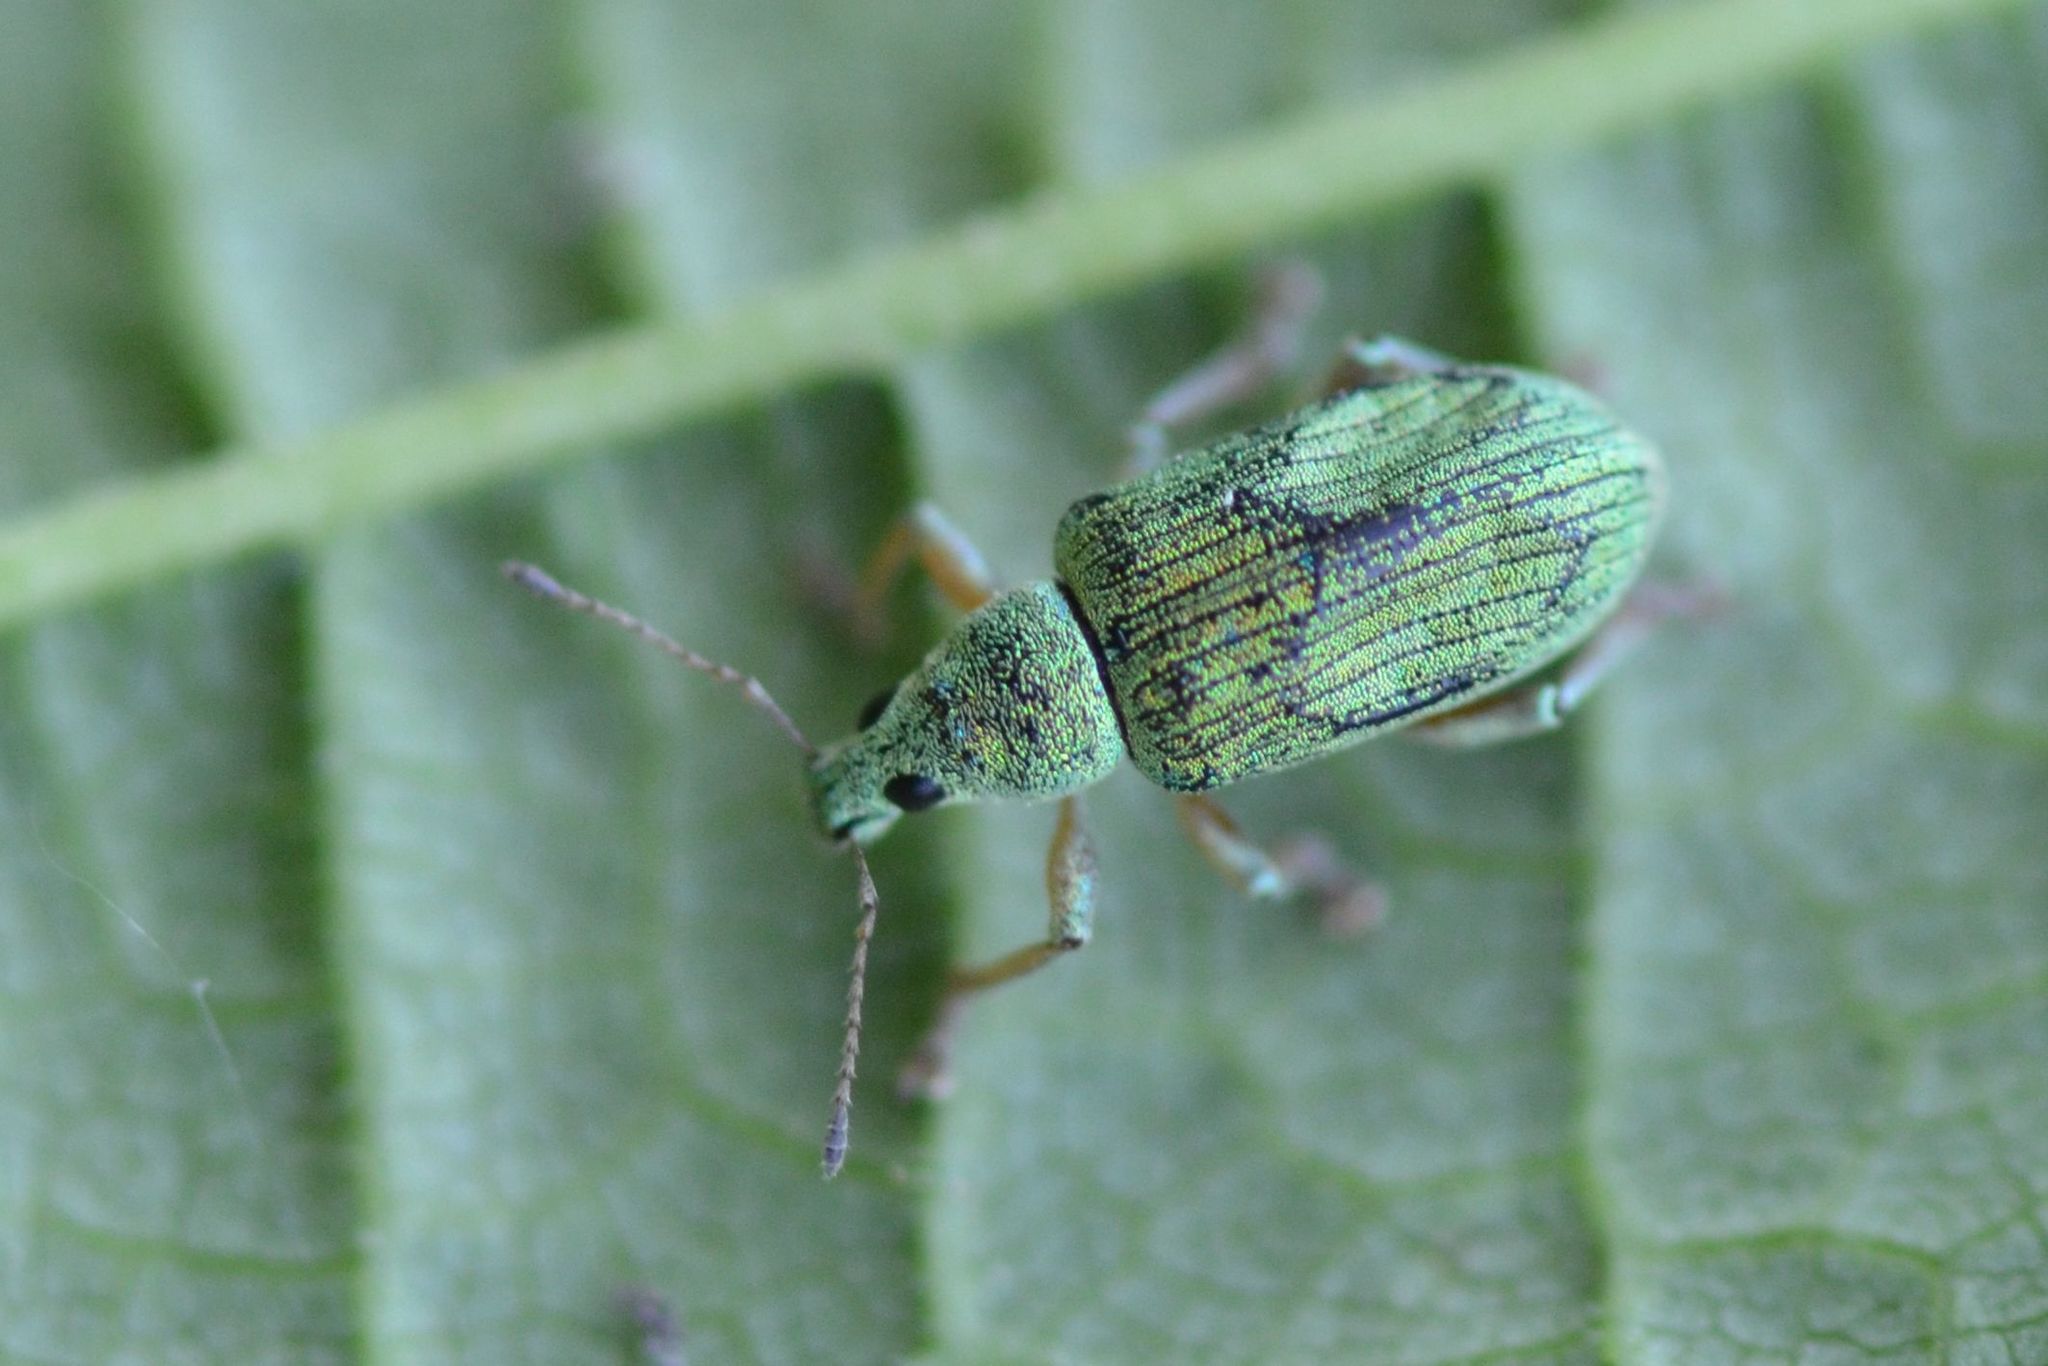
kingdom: Animalia
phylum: Arthropoda
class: Insecta
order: Coleoptera
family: Curculionidae
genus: Polydrusus
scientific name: Polydrusus formosus
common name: Weevil
